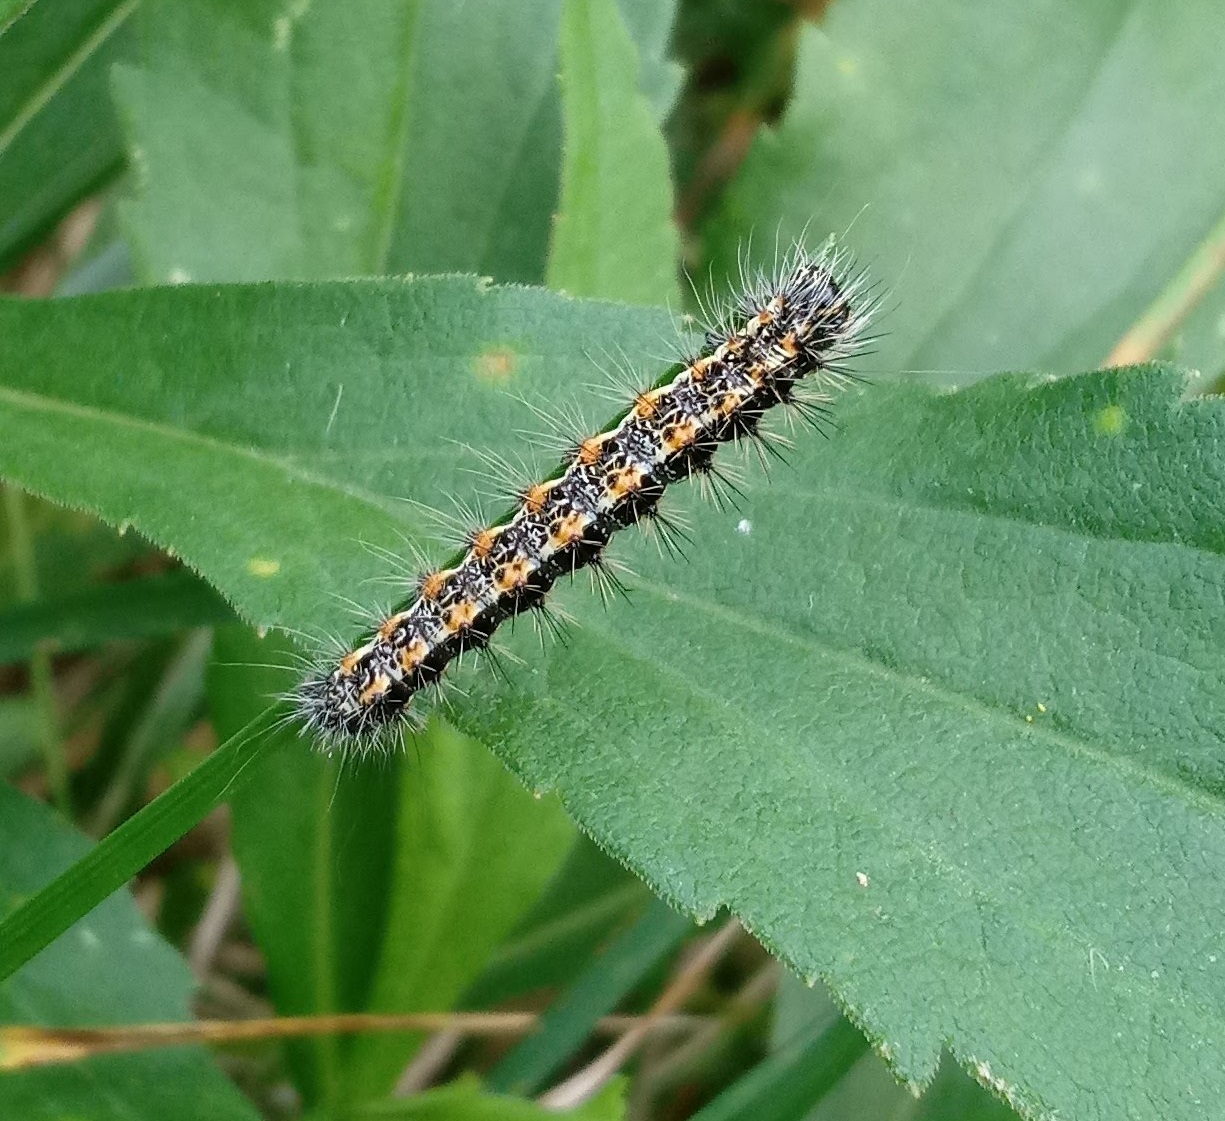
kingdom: Animalia
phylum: Arthropoda
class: Insecta
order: Lepidoptera
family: Noctuidae
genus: Acronicta
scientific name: Acronicta insularis
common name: Henry's marsh moth
